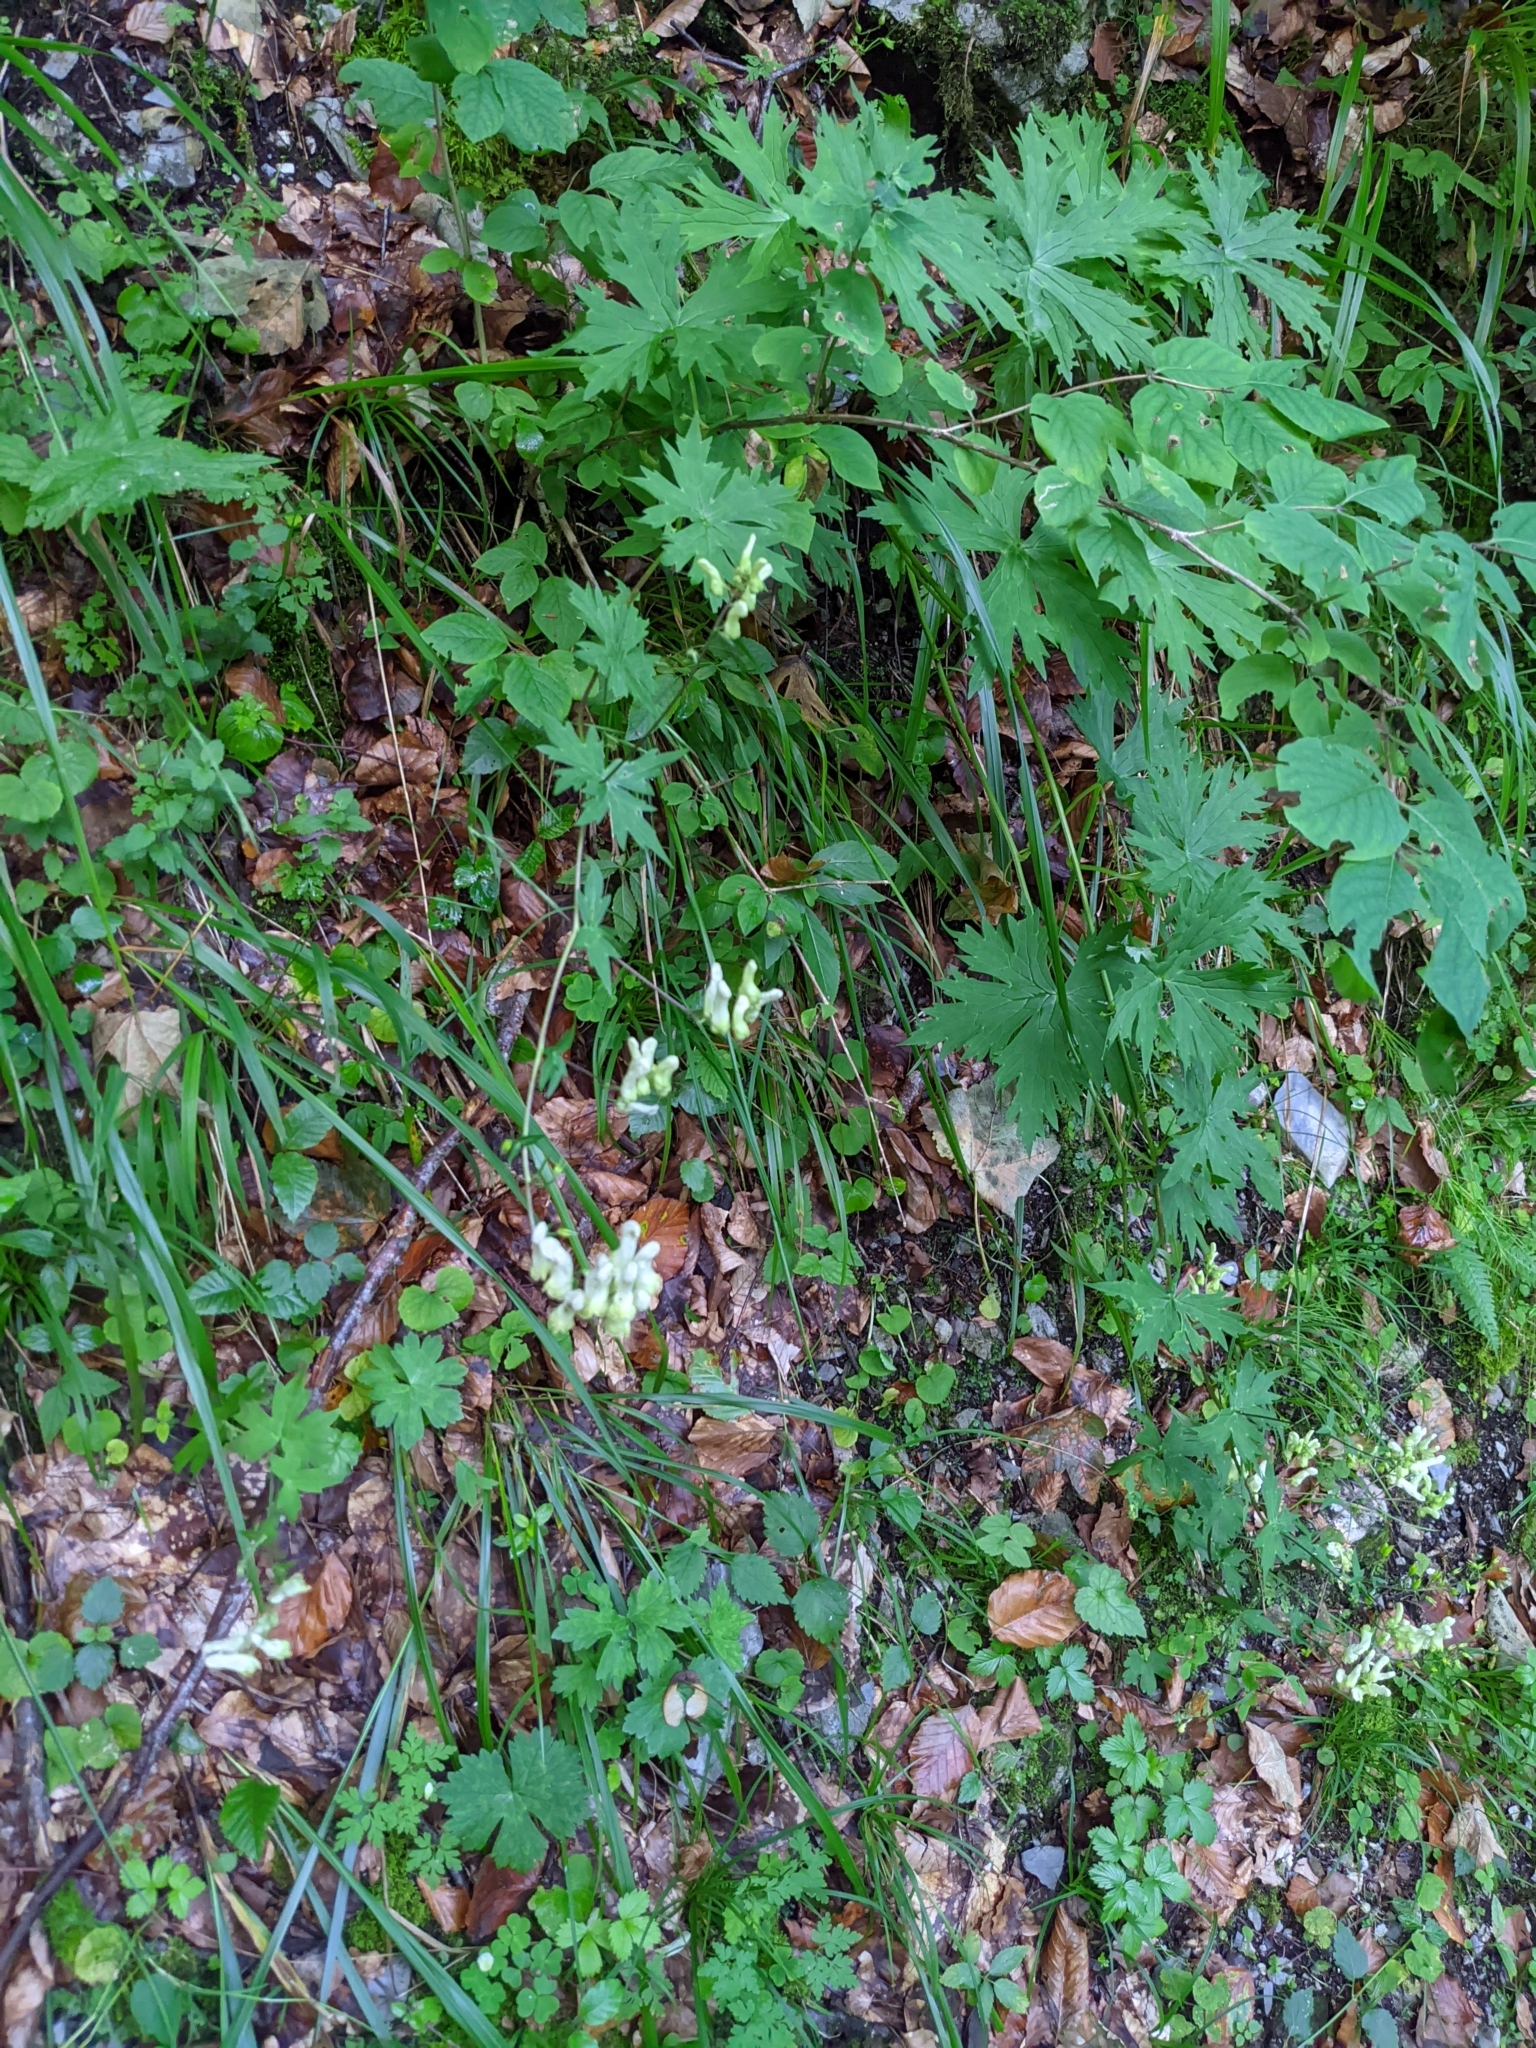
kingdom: Plantae
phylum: Tracheophyta
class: Magnoliopsida
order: Ranunculales
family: Ranunculaceae
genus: Aconitum
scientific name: Aconitum lycoctonum
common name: Wolf's-bane
